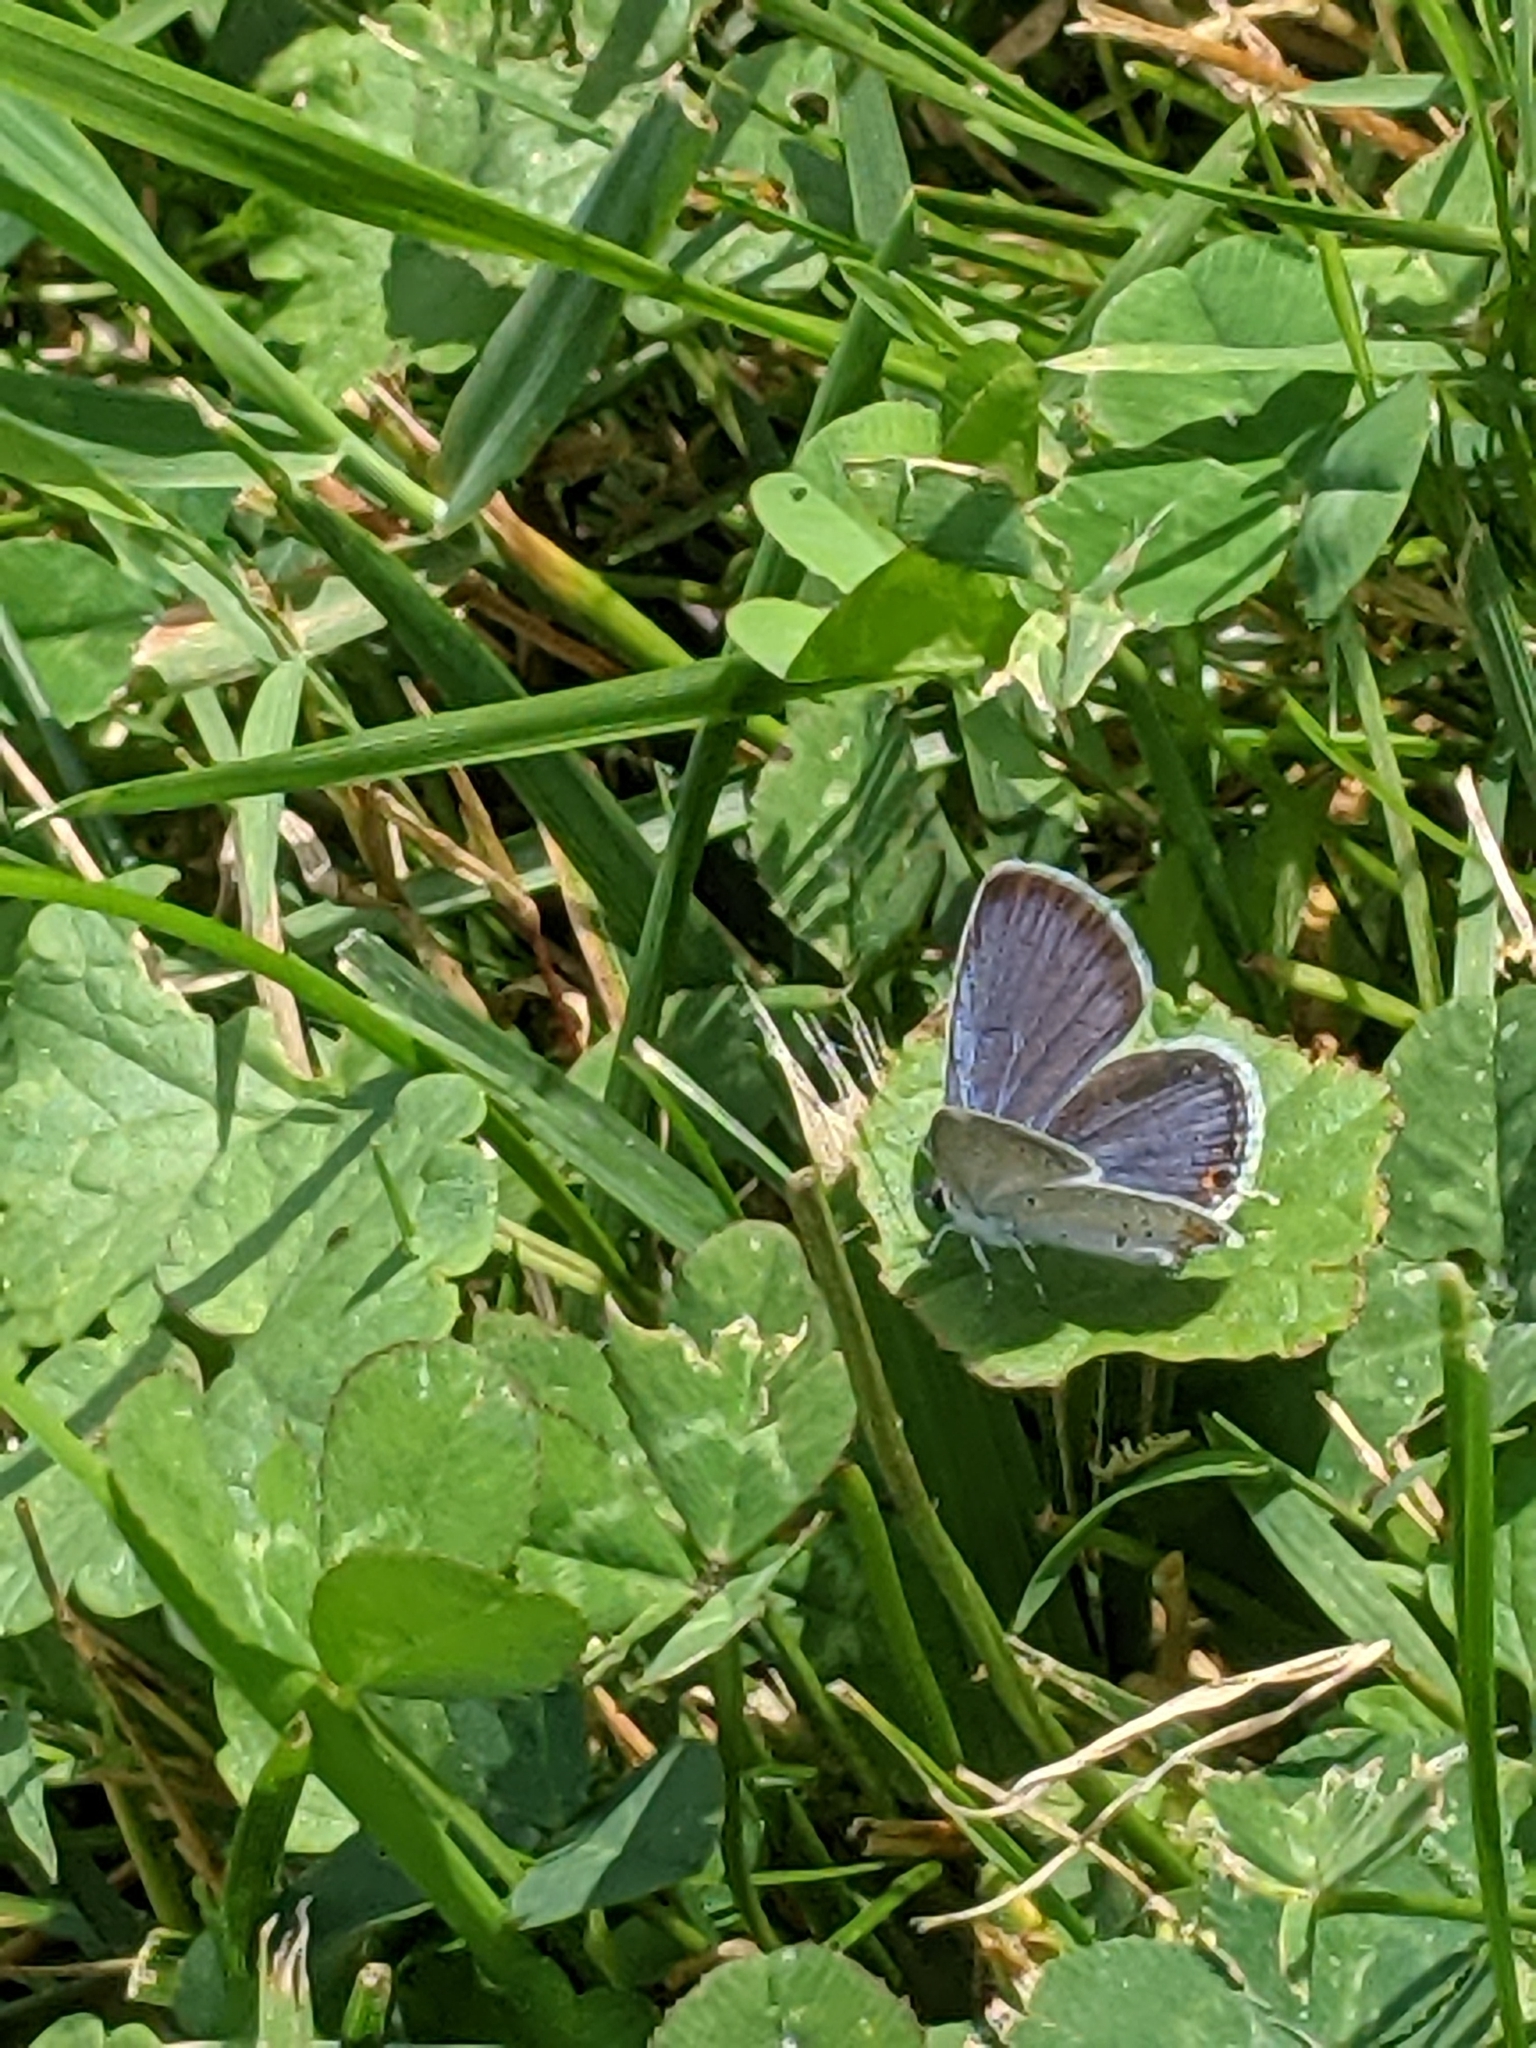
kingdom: Animalia
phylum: Arthropoda
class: Insecta
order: Lepidoptera
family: Lycaenidae
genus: Elkalyce
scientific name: Elkalyce comyntas
